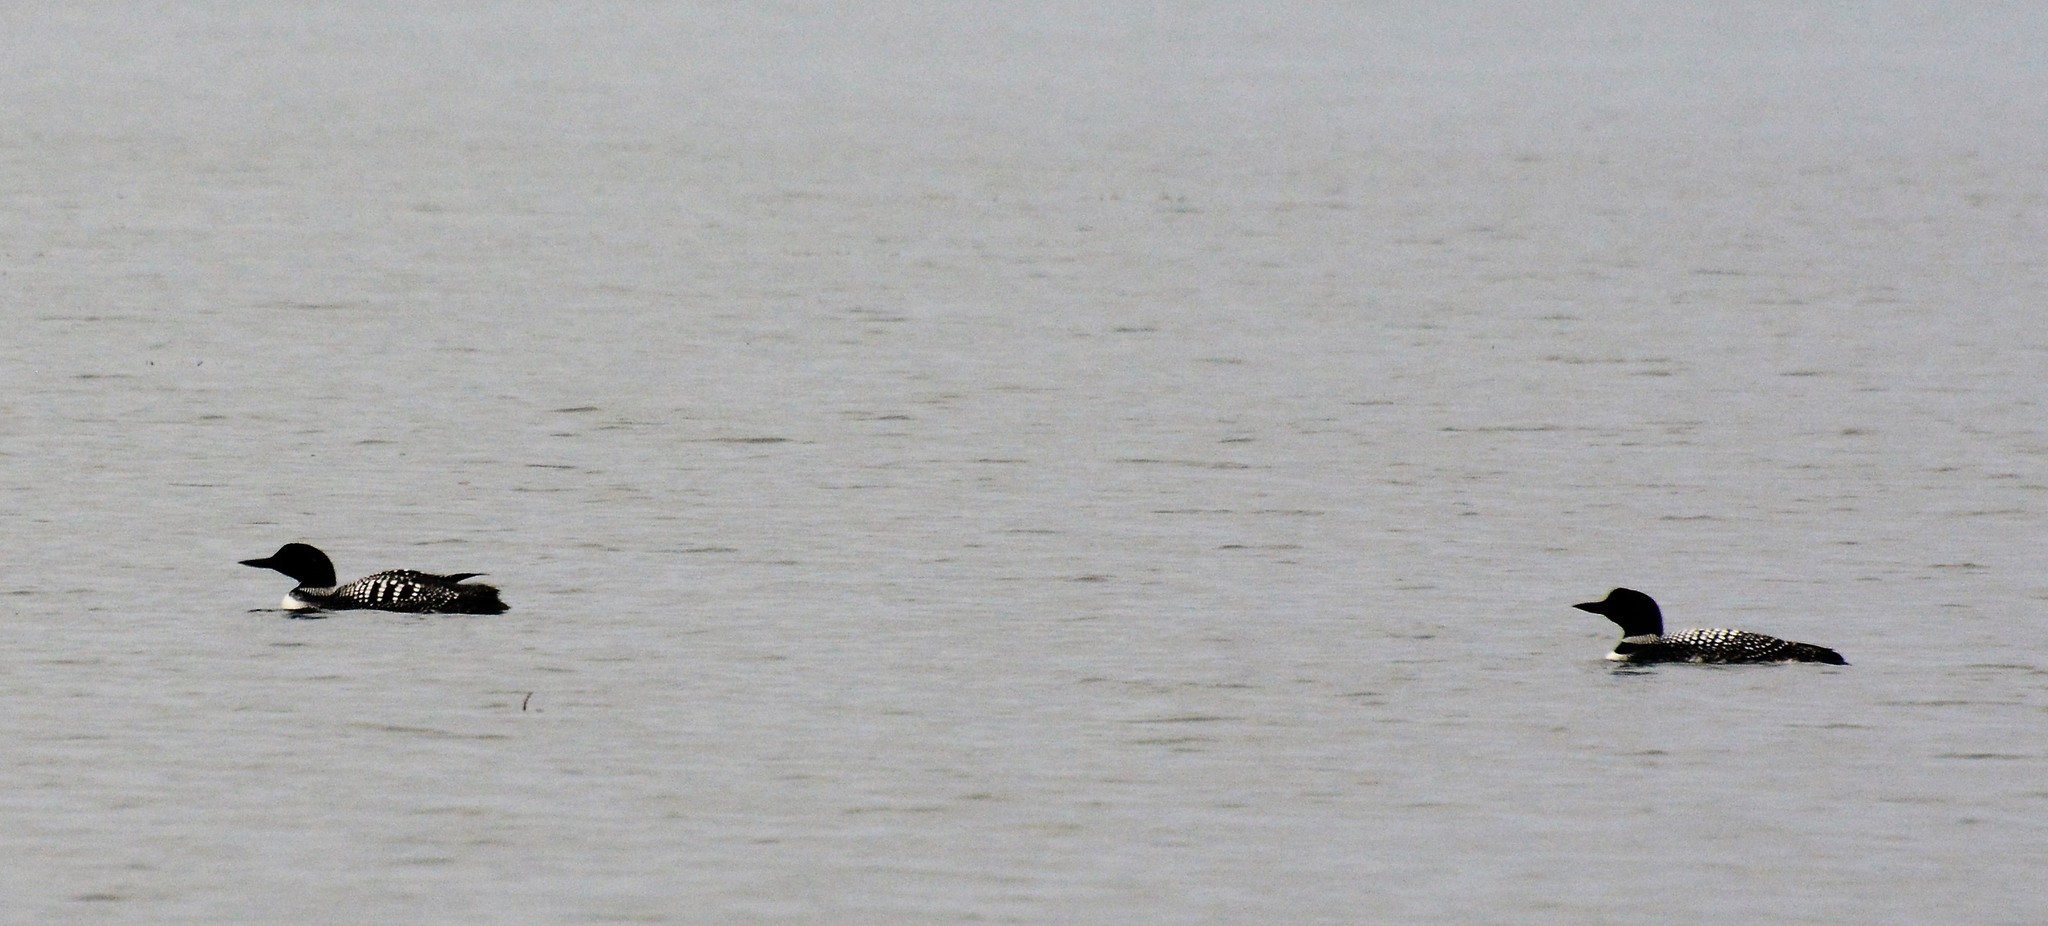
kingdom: Animalia
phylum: Chordata
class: Aves
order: Gaviiformes
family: Gaviidae
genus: Gavia
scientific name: Gavia immer
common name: Common loon
